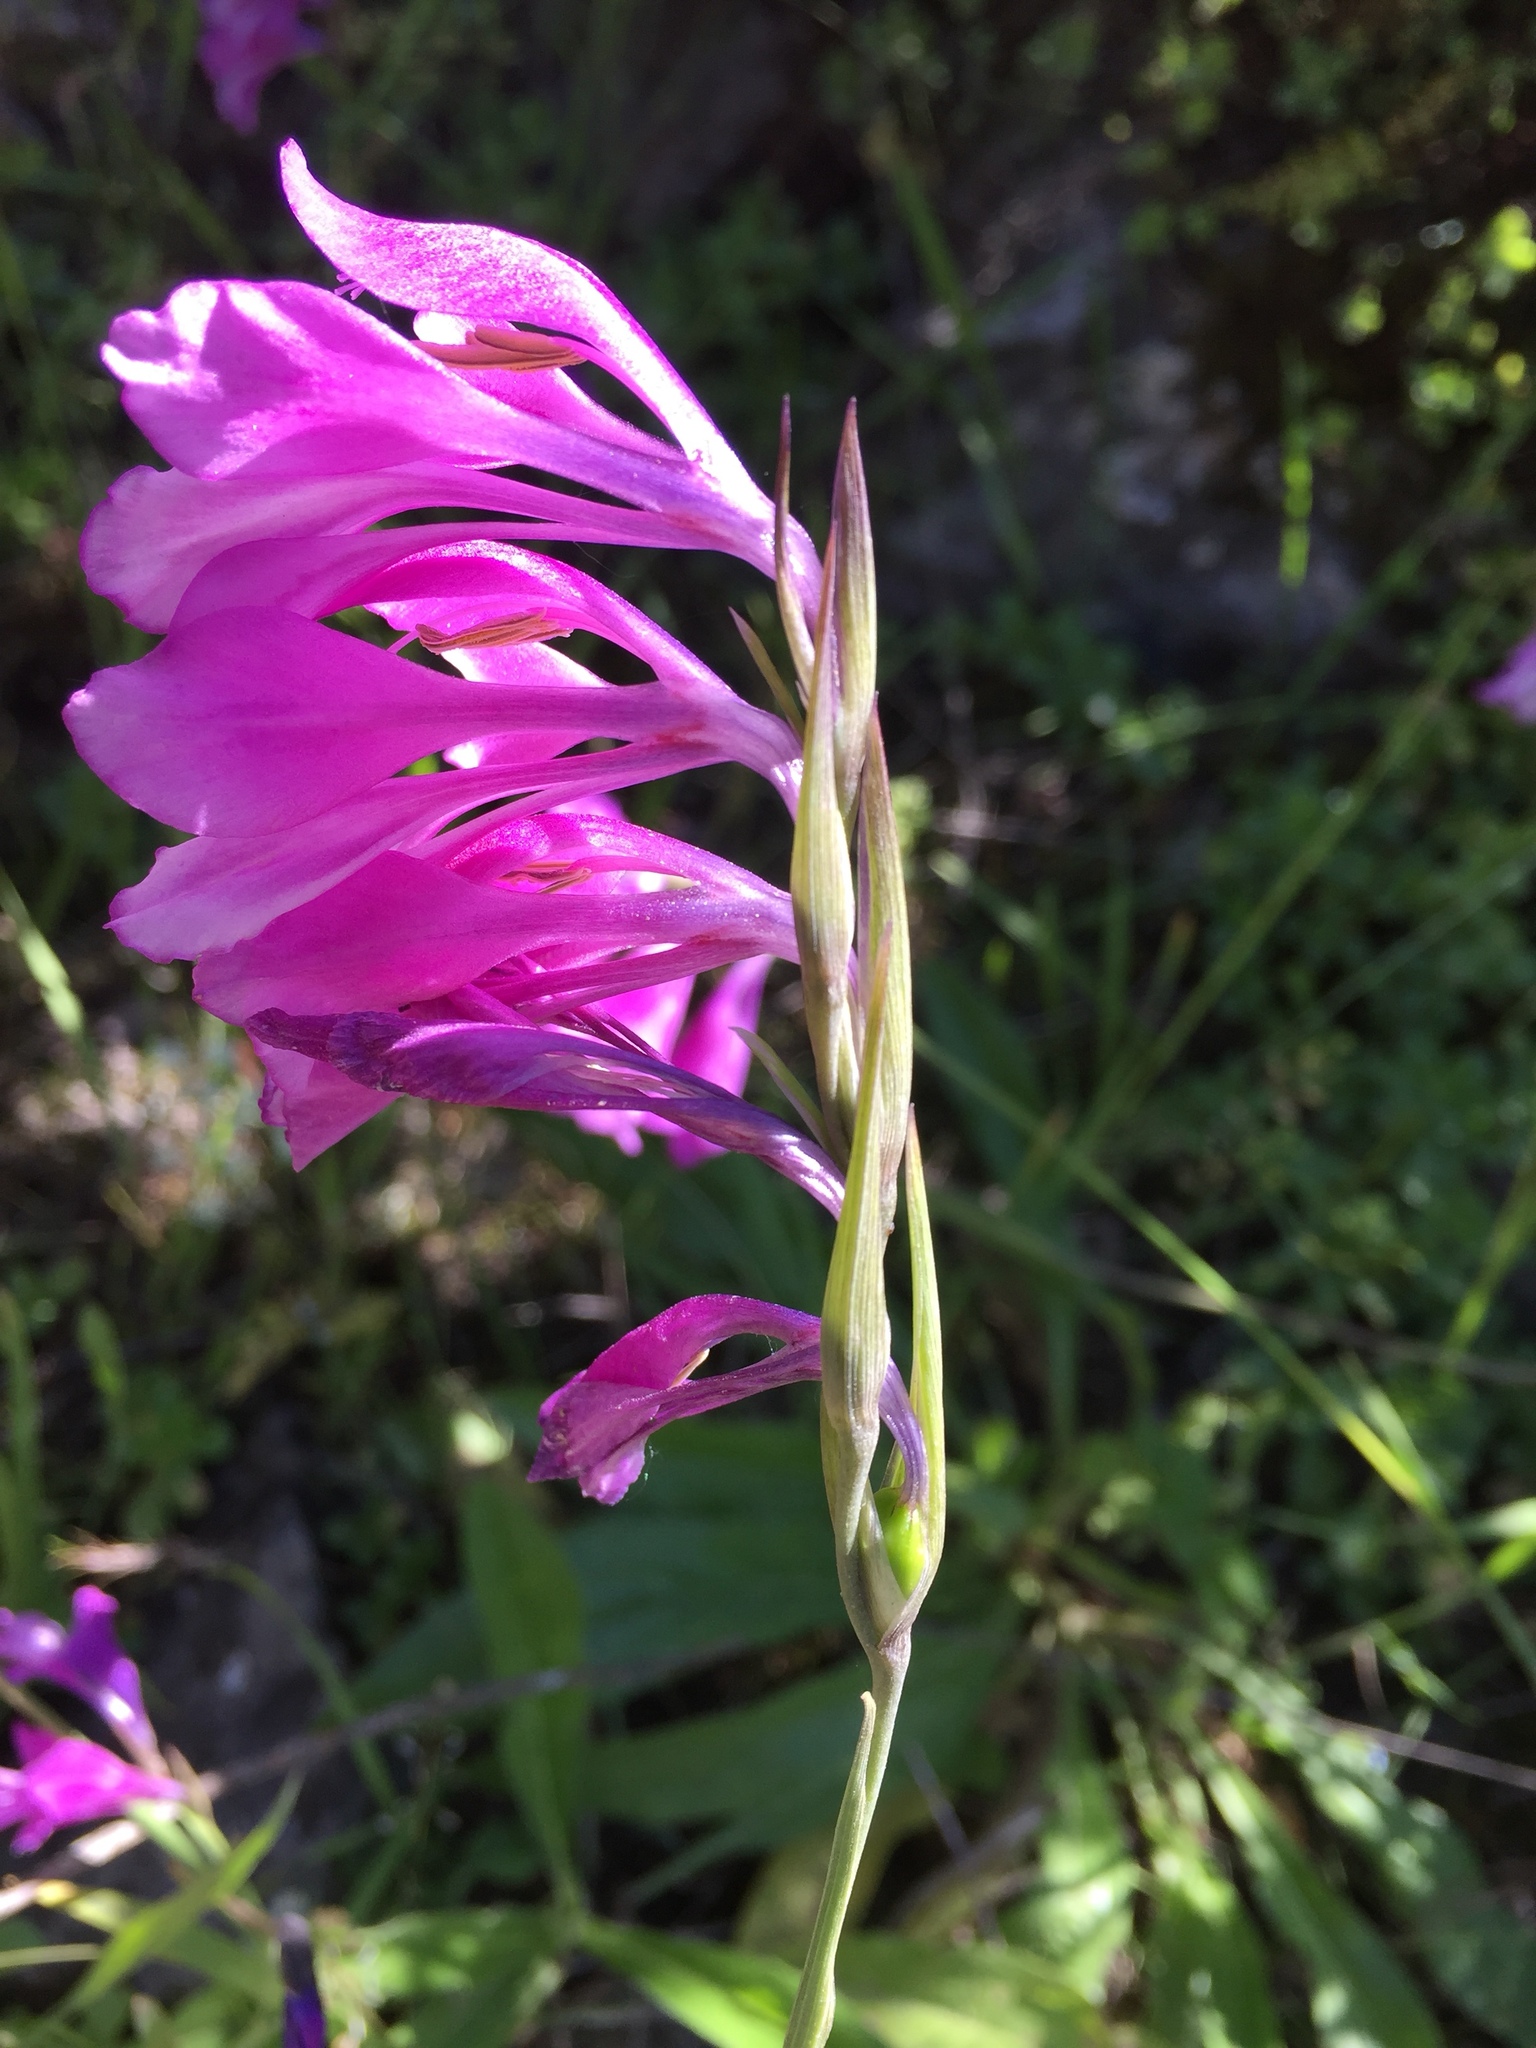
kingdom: Plantae
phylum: Tracheophyta
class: Liliopsida
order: Asparagales
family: Iridaceae
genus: Gladiolus
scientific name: Gladiolus italicus
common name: Field gladiolus
